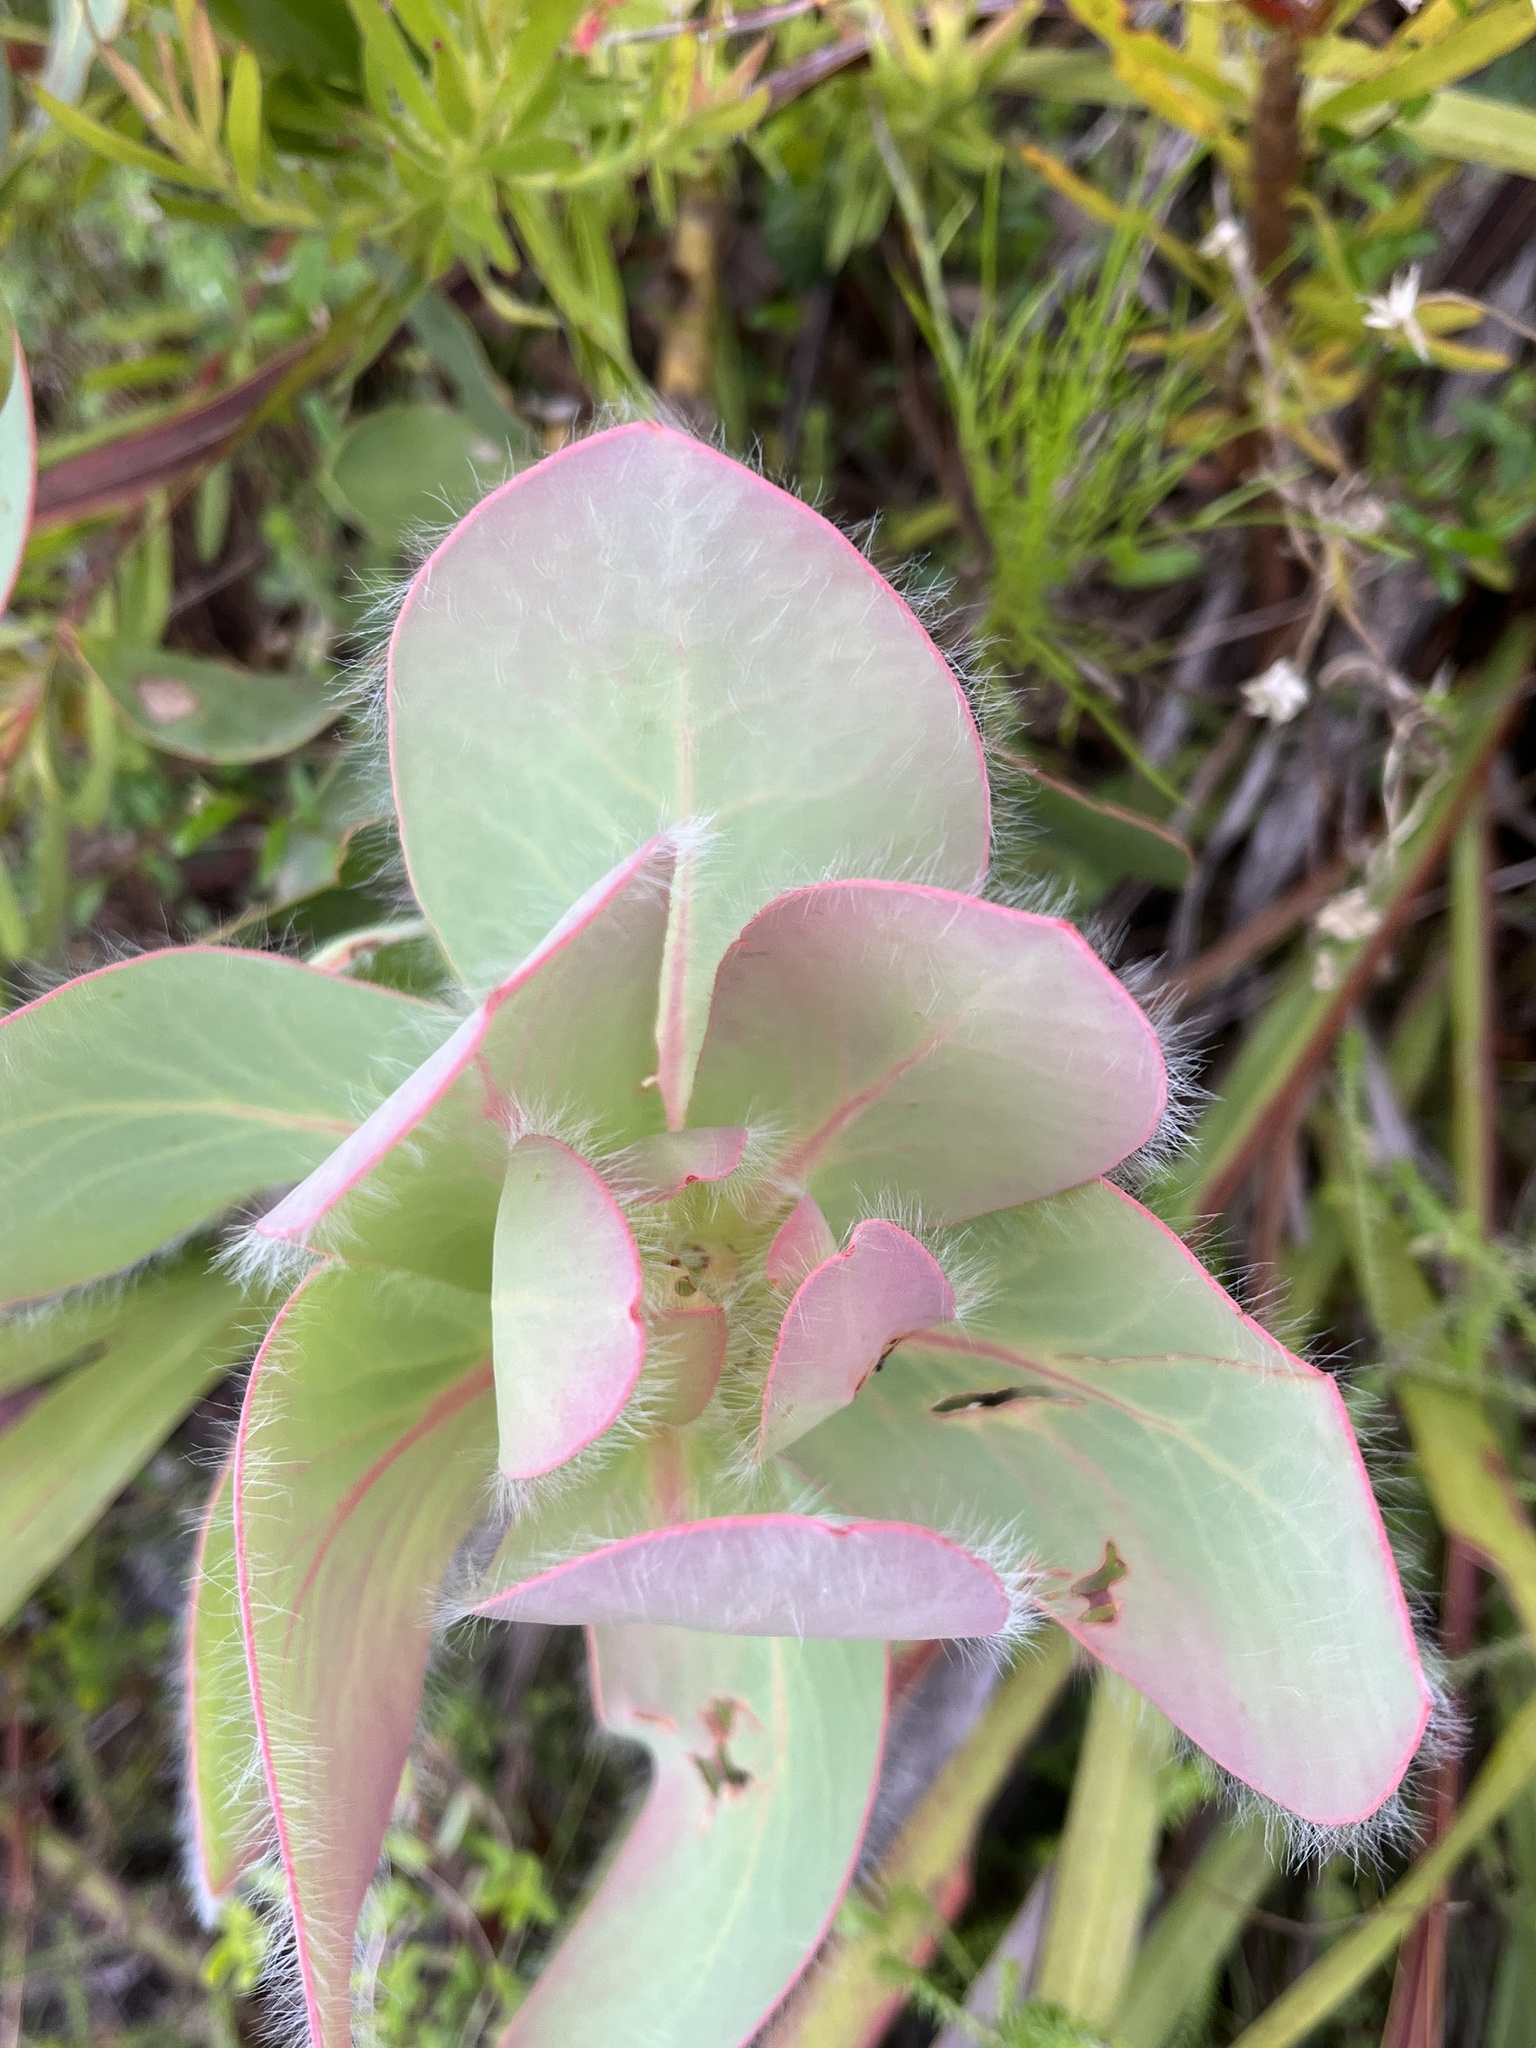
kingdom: Plantae
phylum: Tracheophyta
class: Magnoliopsida
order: Proteales
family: Proteaceae
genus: Protea
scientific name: Protea grandiceps
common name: Red sugarbush
